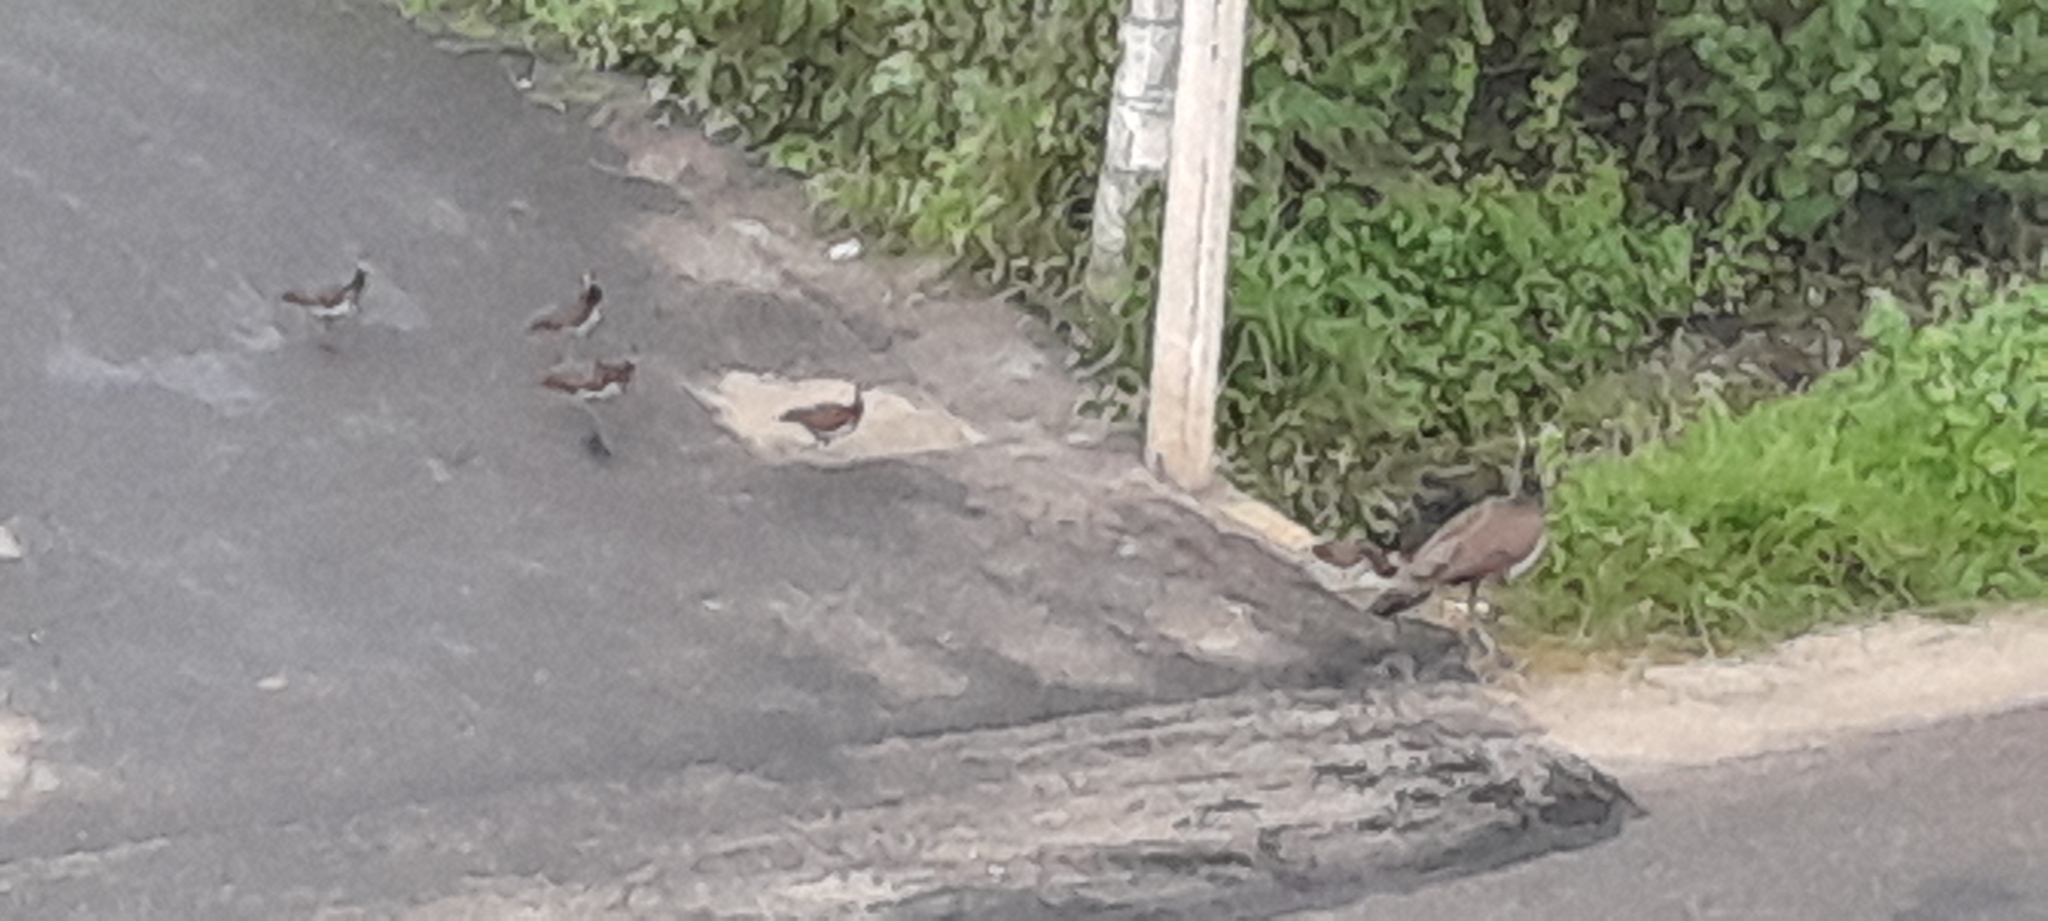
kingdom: Animalia
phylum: Chordata
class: Aves
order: Galliformes
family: Phasianidae
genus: Pavo
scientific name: Pavo cristatus
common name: Indian peafowl
